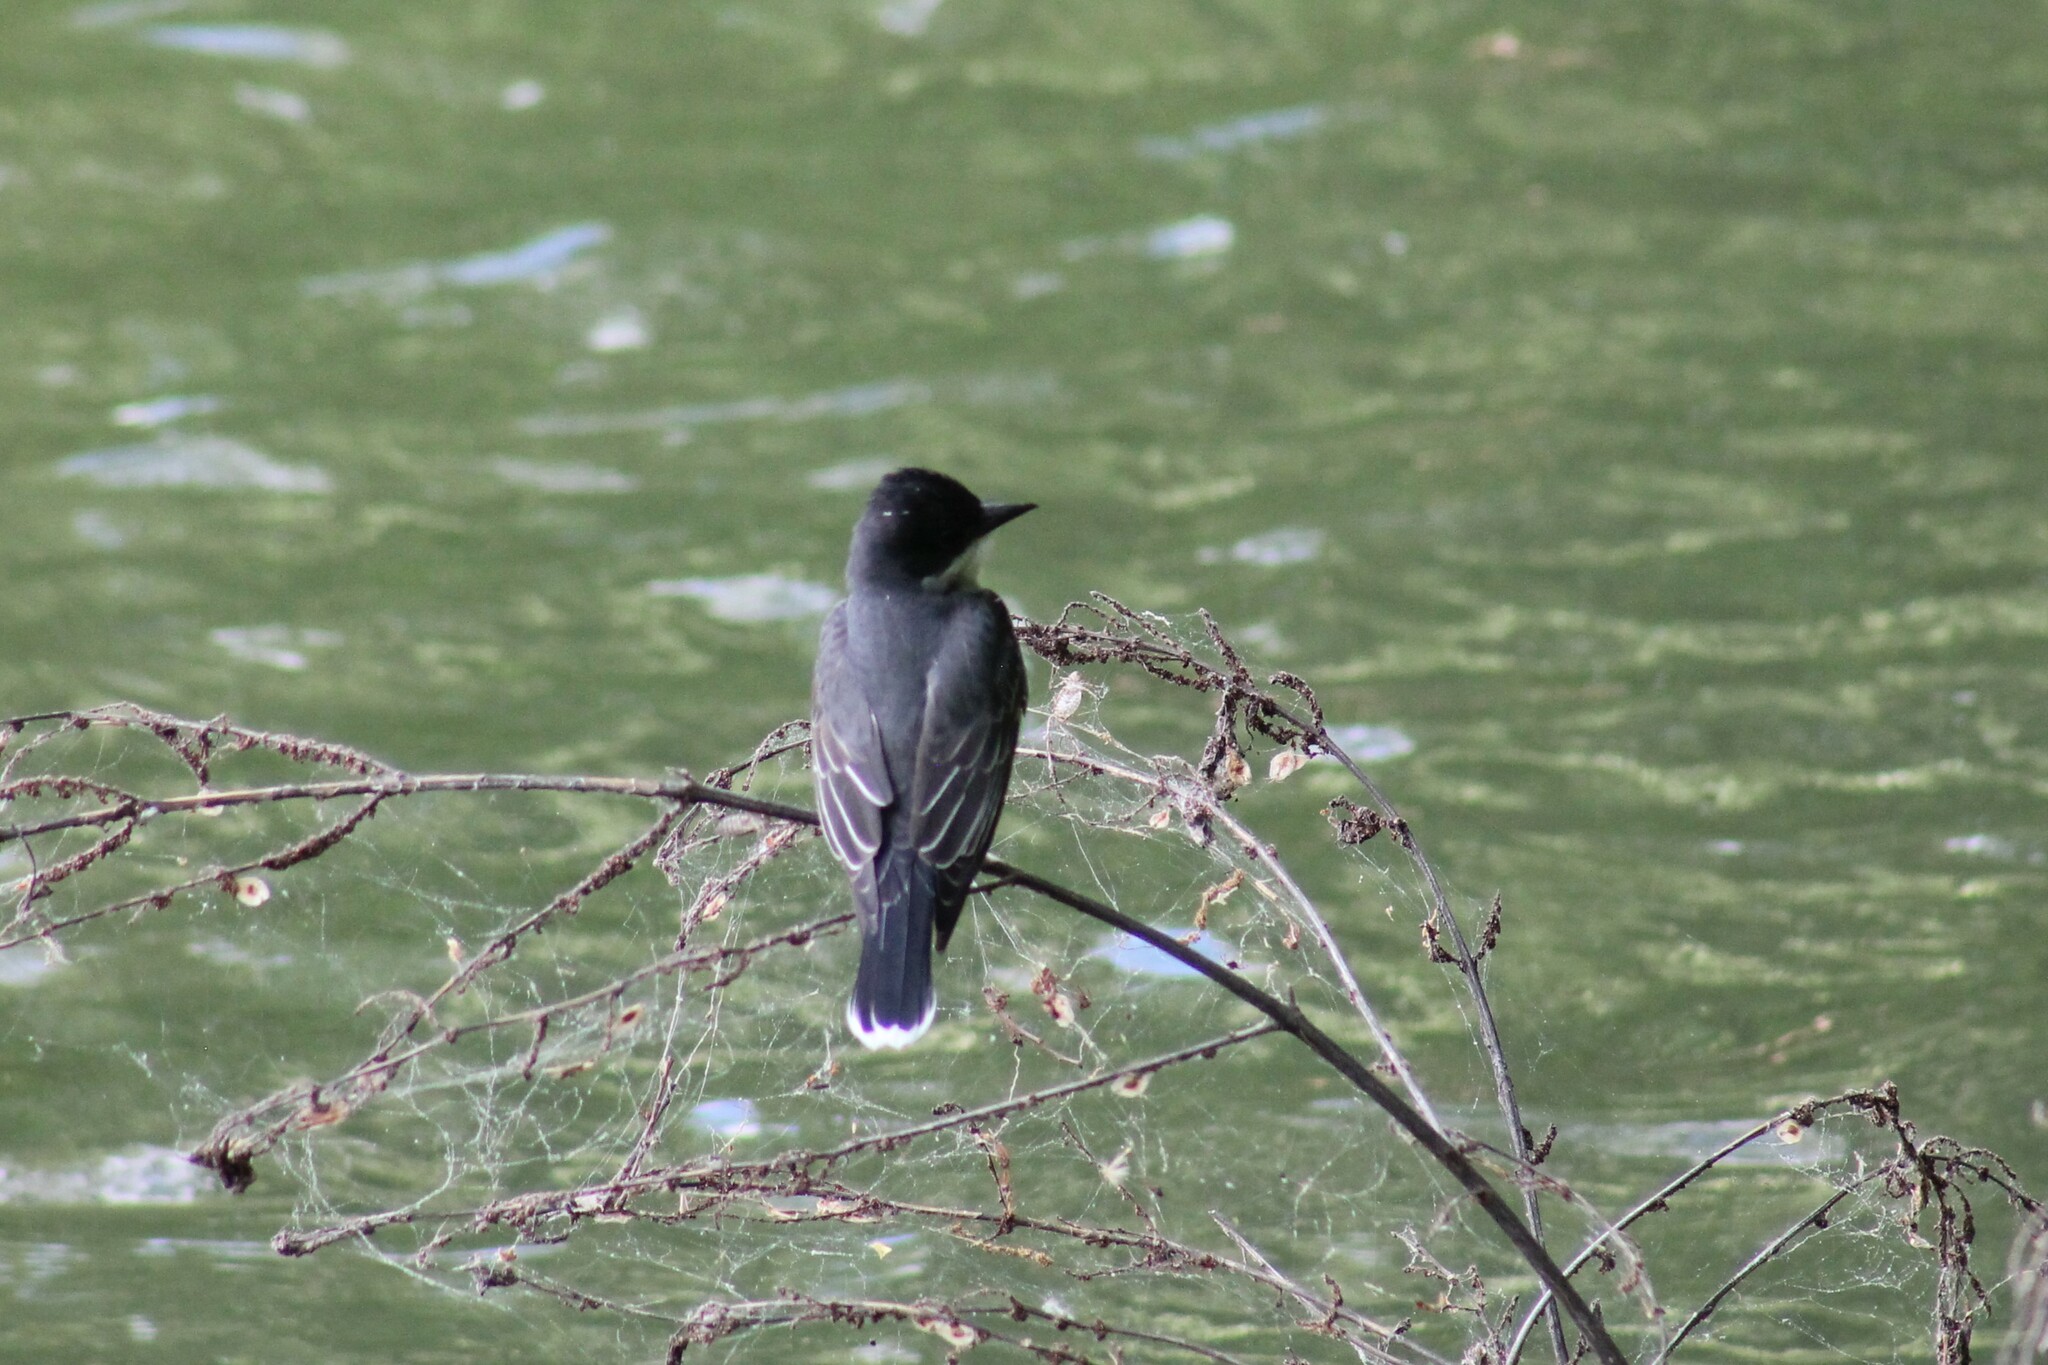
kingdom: Animalia
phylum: Chordata
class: Aves
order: Passeriformes
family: Tyrannidae
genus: Tyrannus
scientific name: Tyrannus tyrannus
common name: Eastern kingbird
